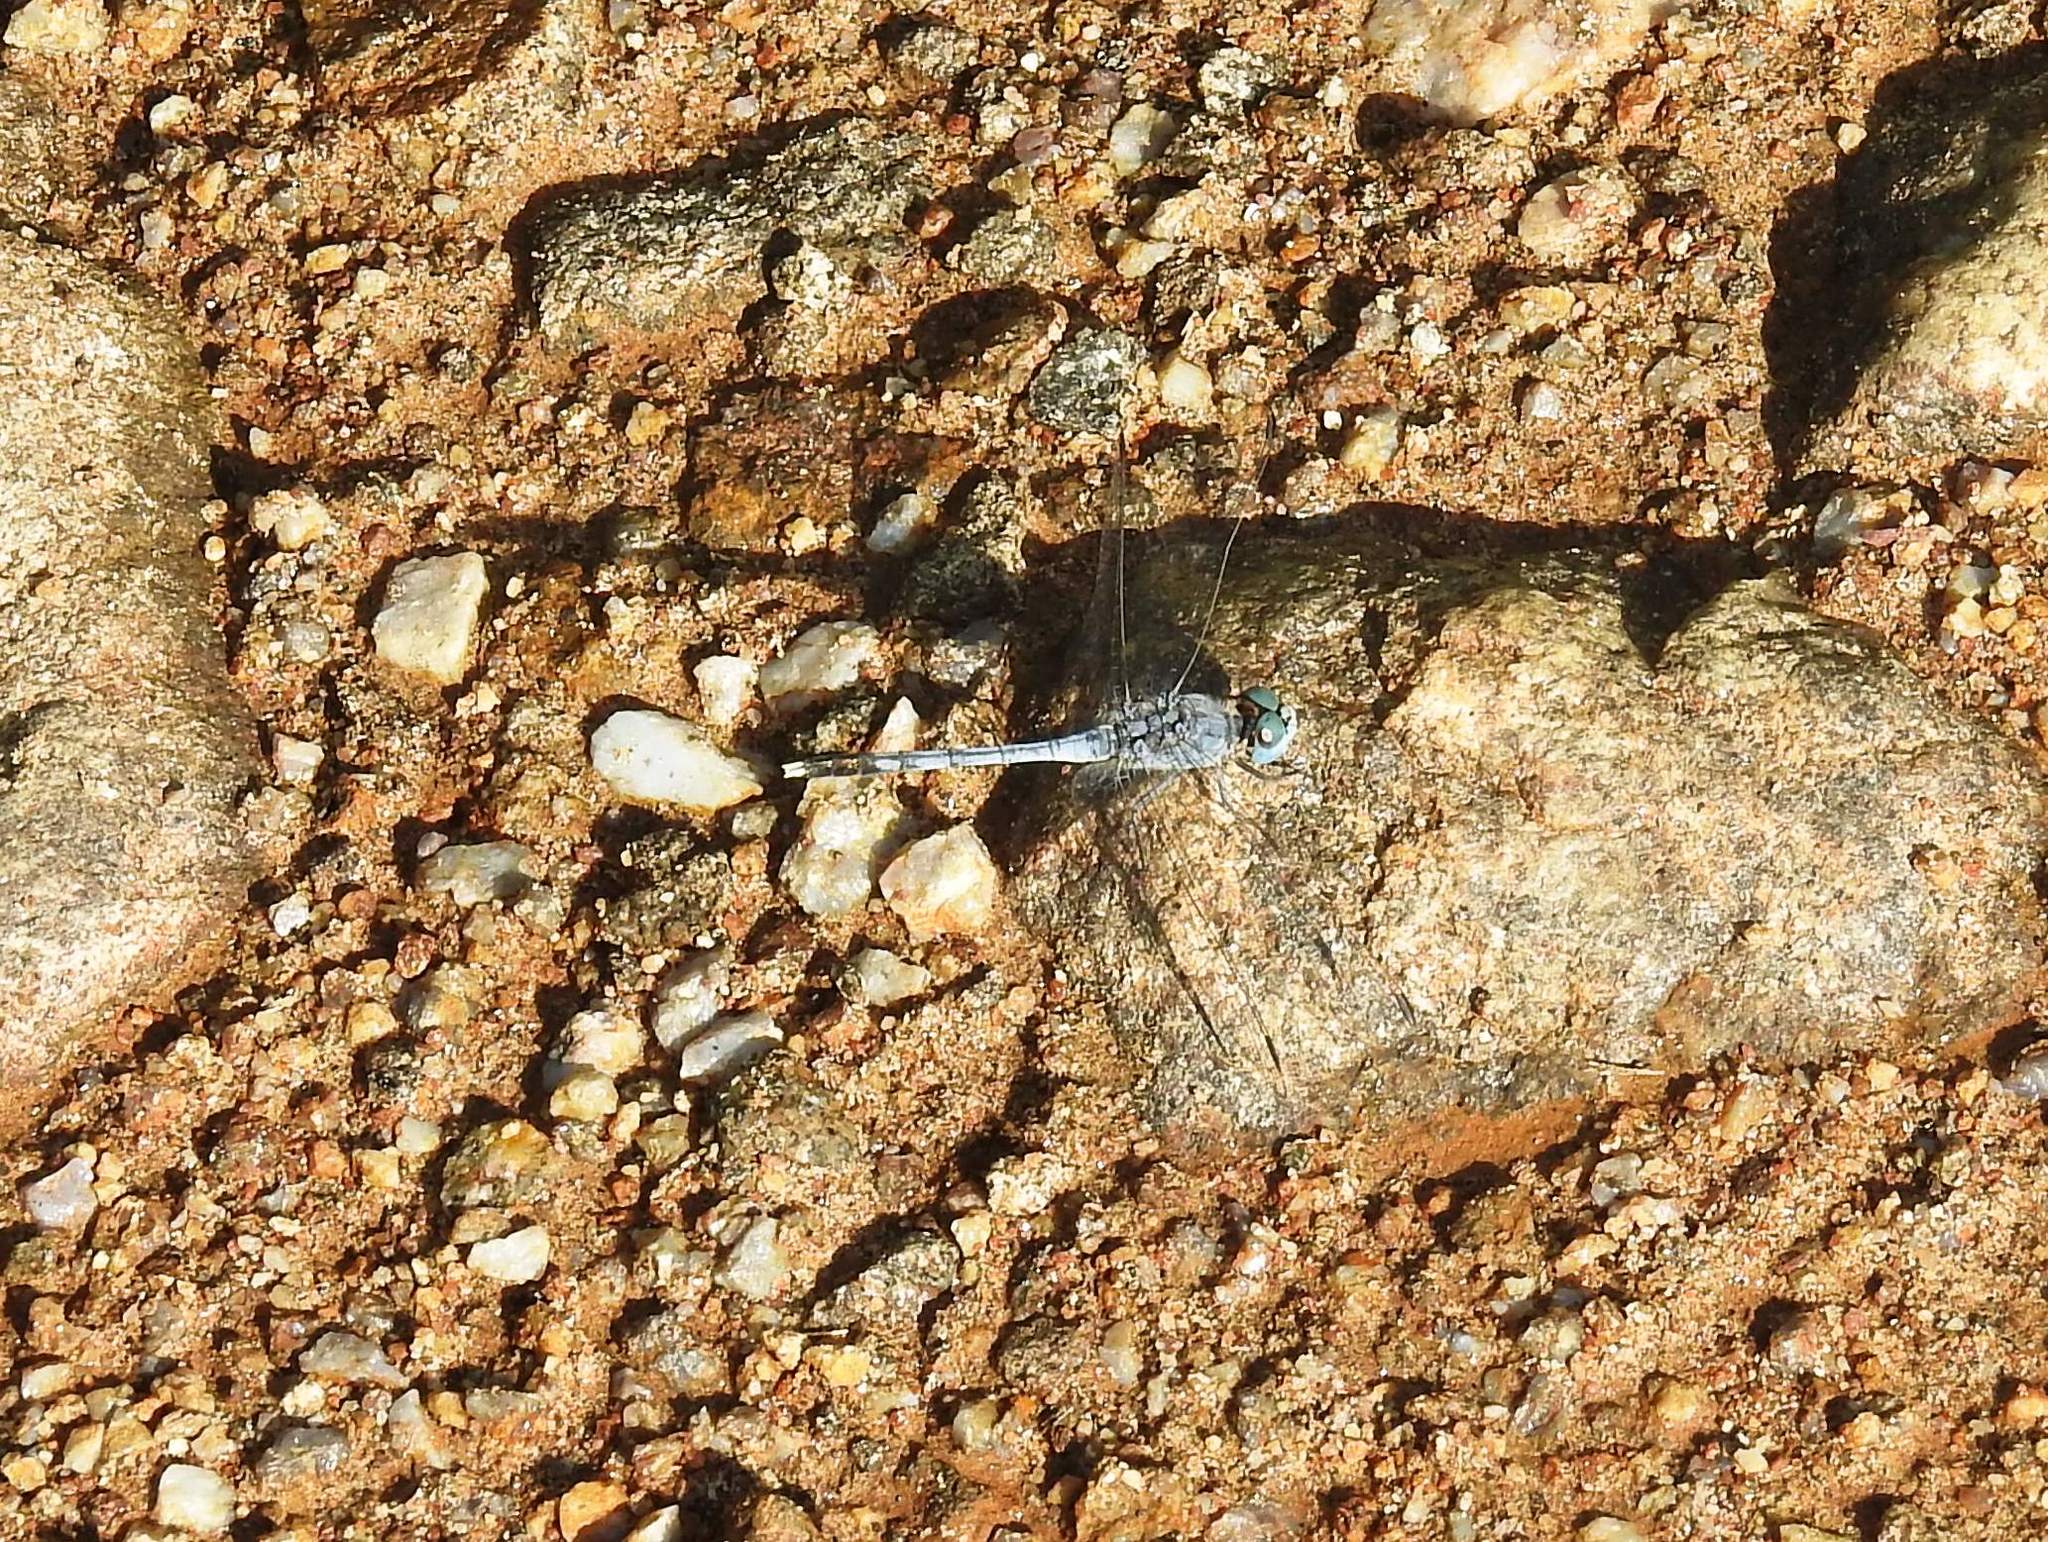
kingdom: Animalia
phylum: Arthropoda
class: Insecta
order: Odonata
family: Libellulidae
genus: Diplacodes
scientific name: Diplacodes trivialis
